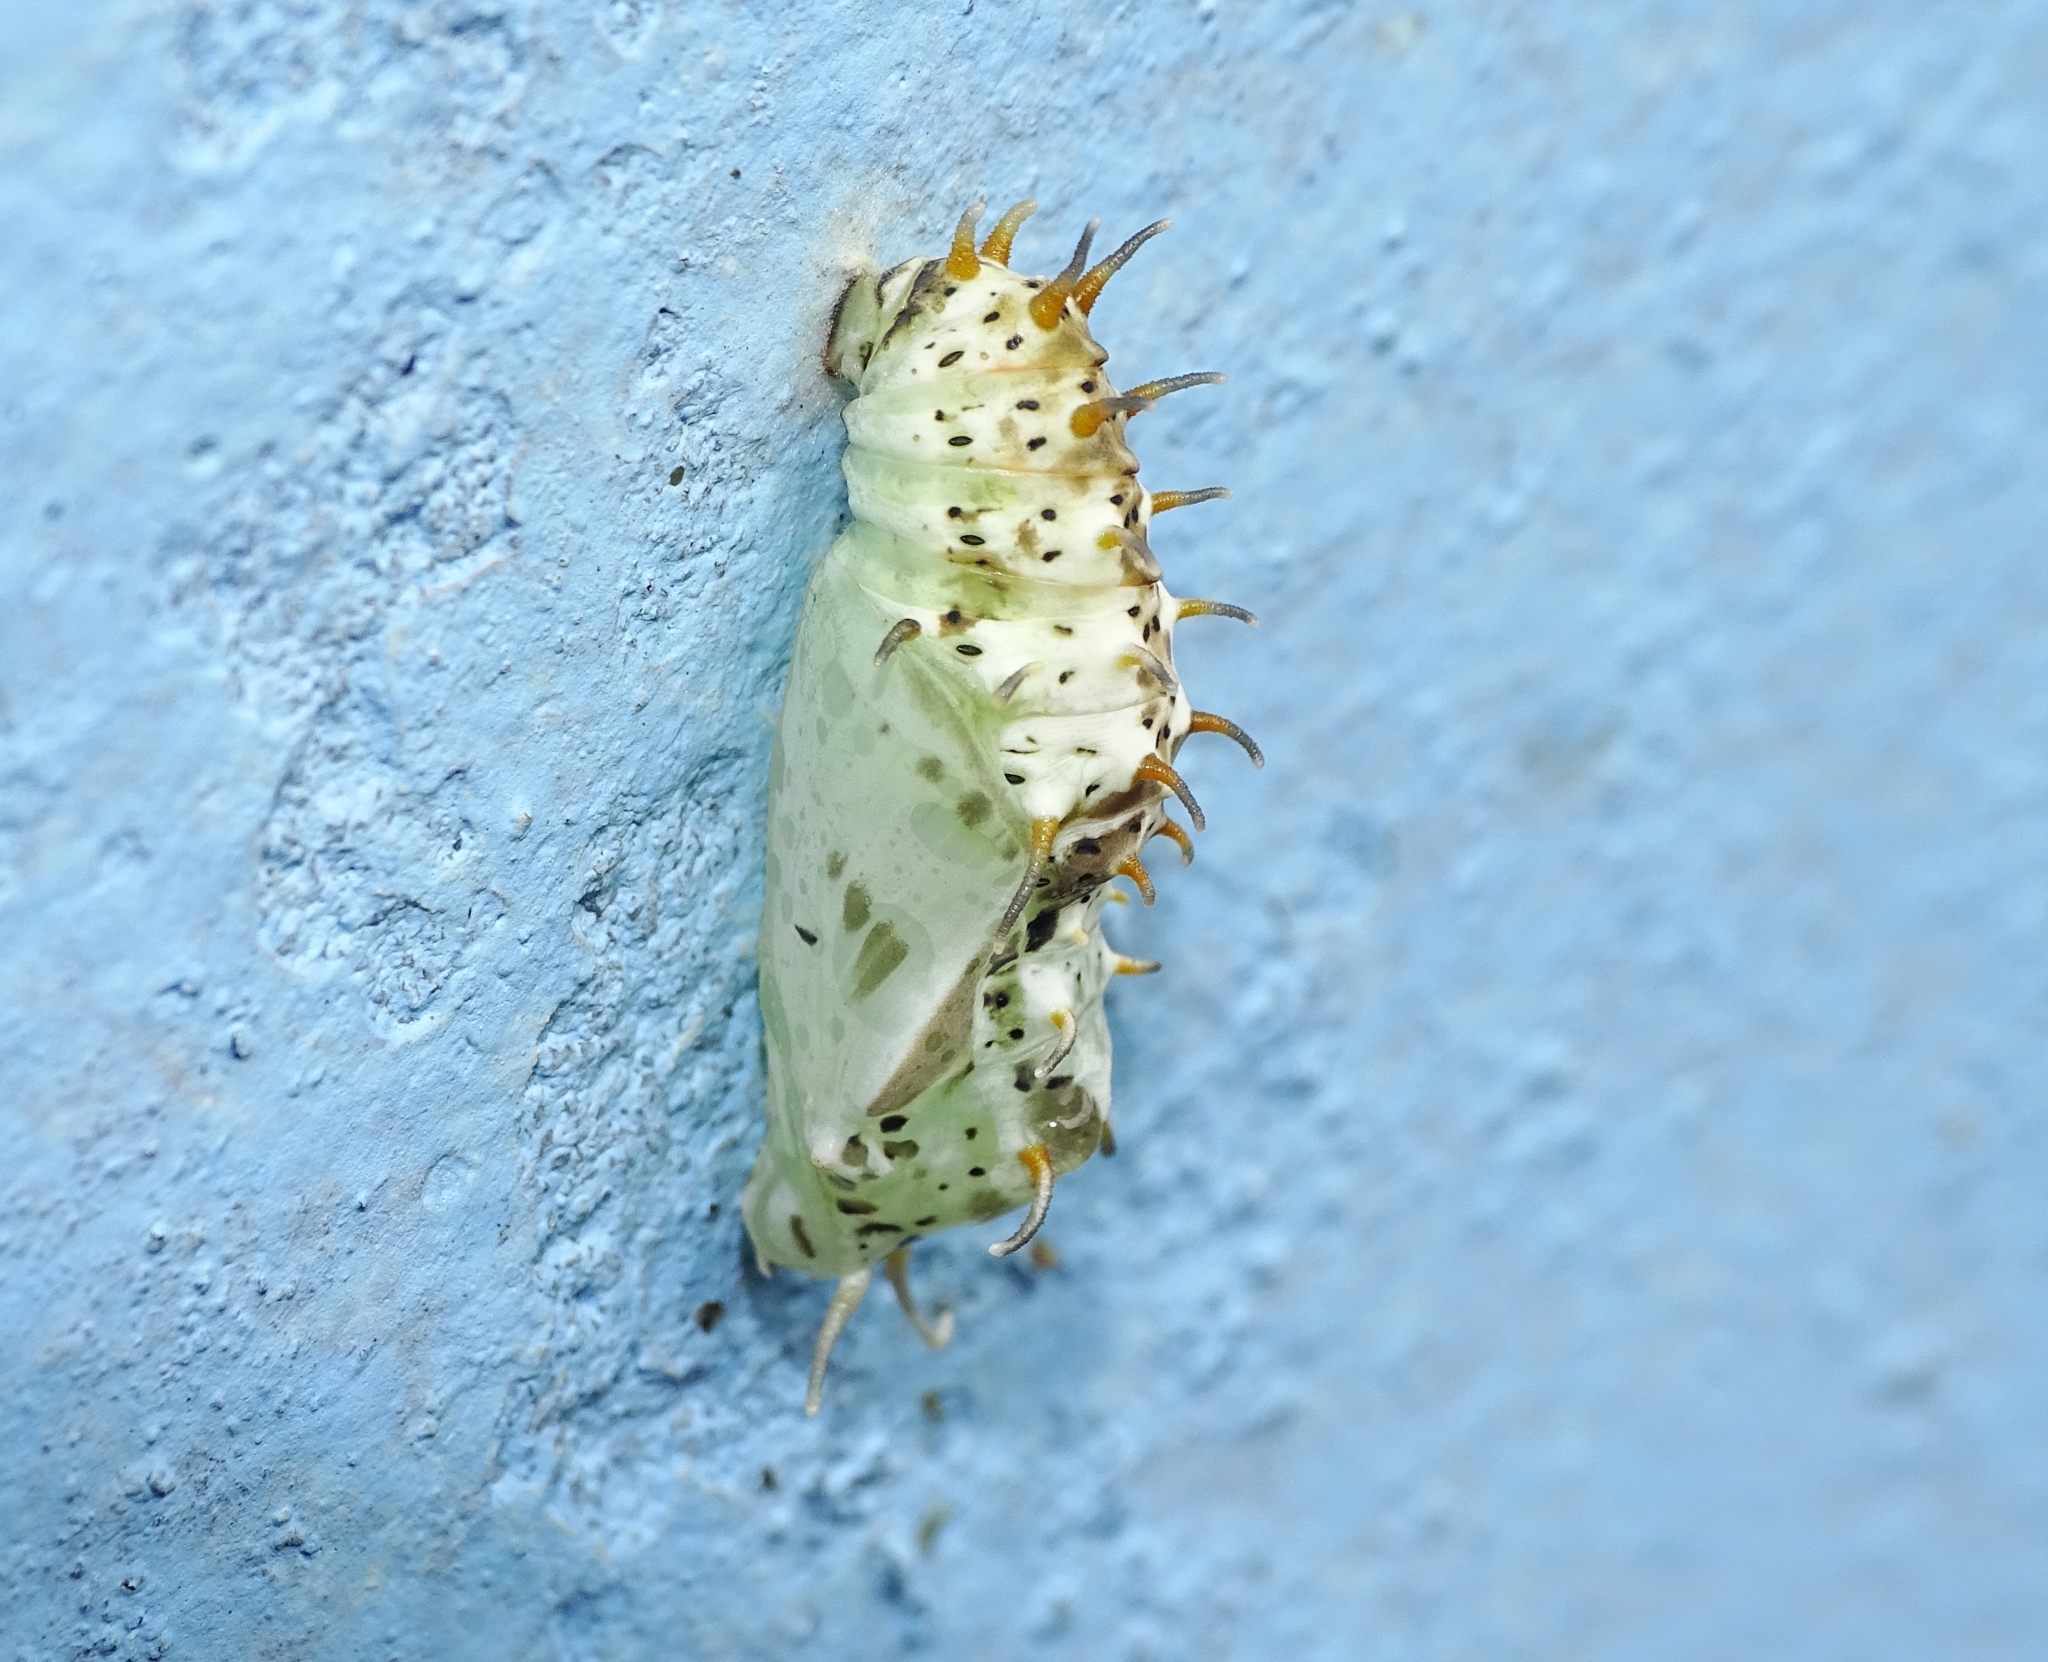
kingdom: Animalia
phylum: Arthropoda
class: Insecta
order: Lepidoptera
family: Nymphalidae
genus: Cirrochroa
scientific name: Cirrochroa thais
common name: Tamil yeoman
